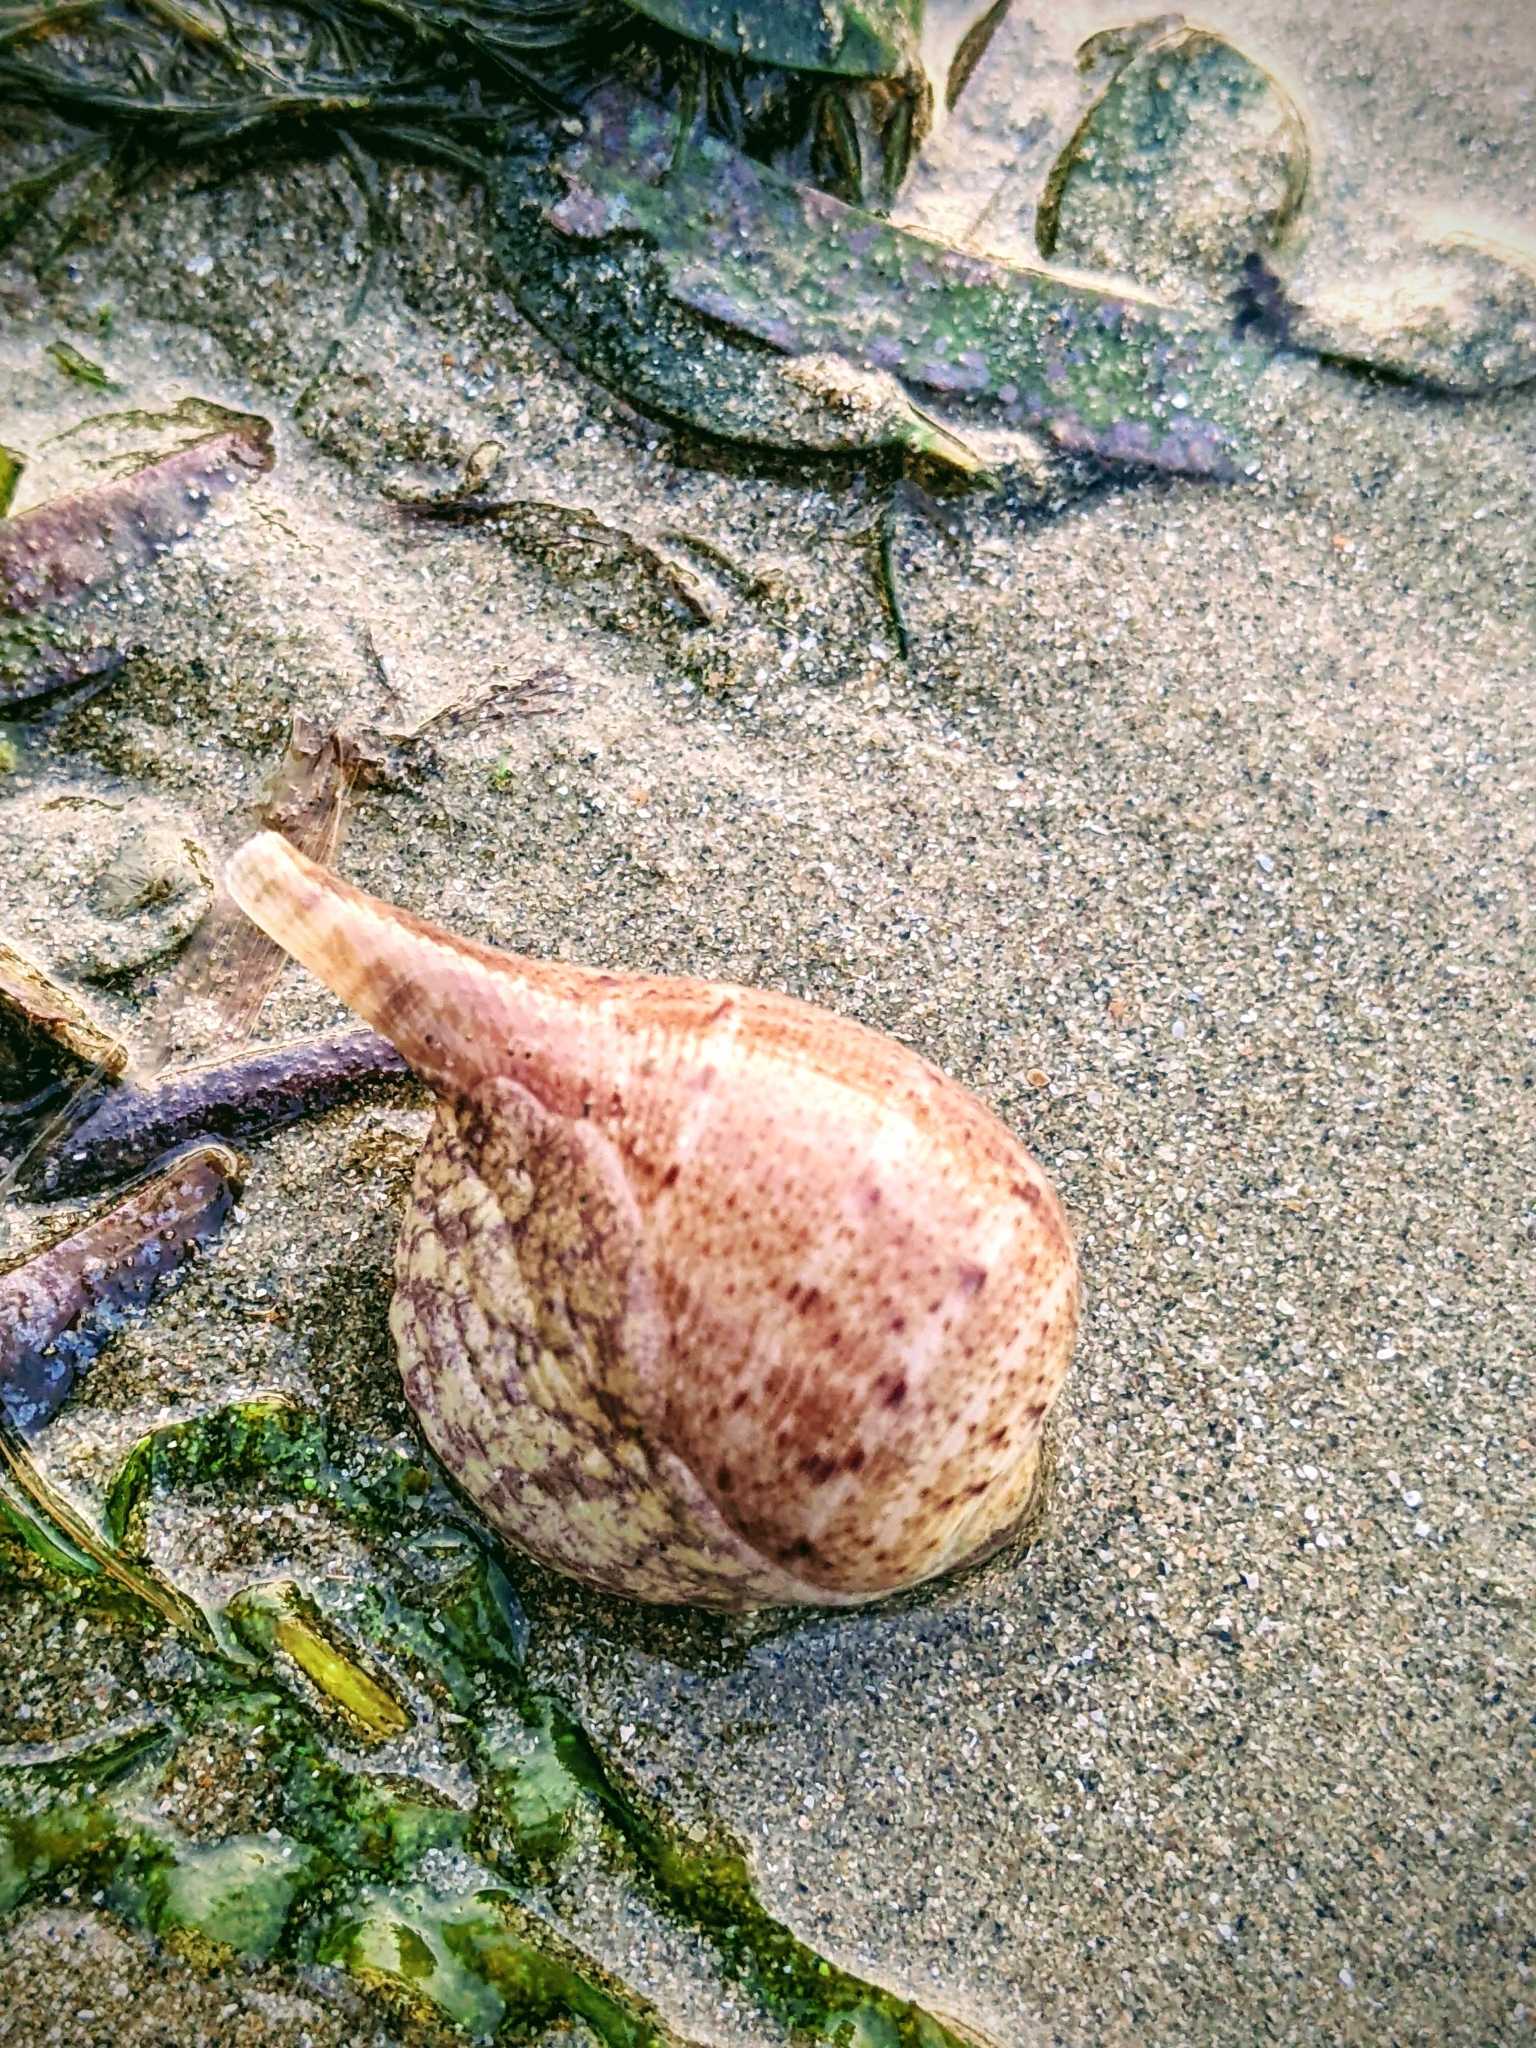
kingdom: Animalia
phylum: Mollusca
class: Gastropoda
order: Littorinimorpha
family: Ficidae
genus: Ficus
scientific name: Ficus ficus
